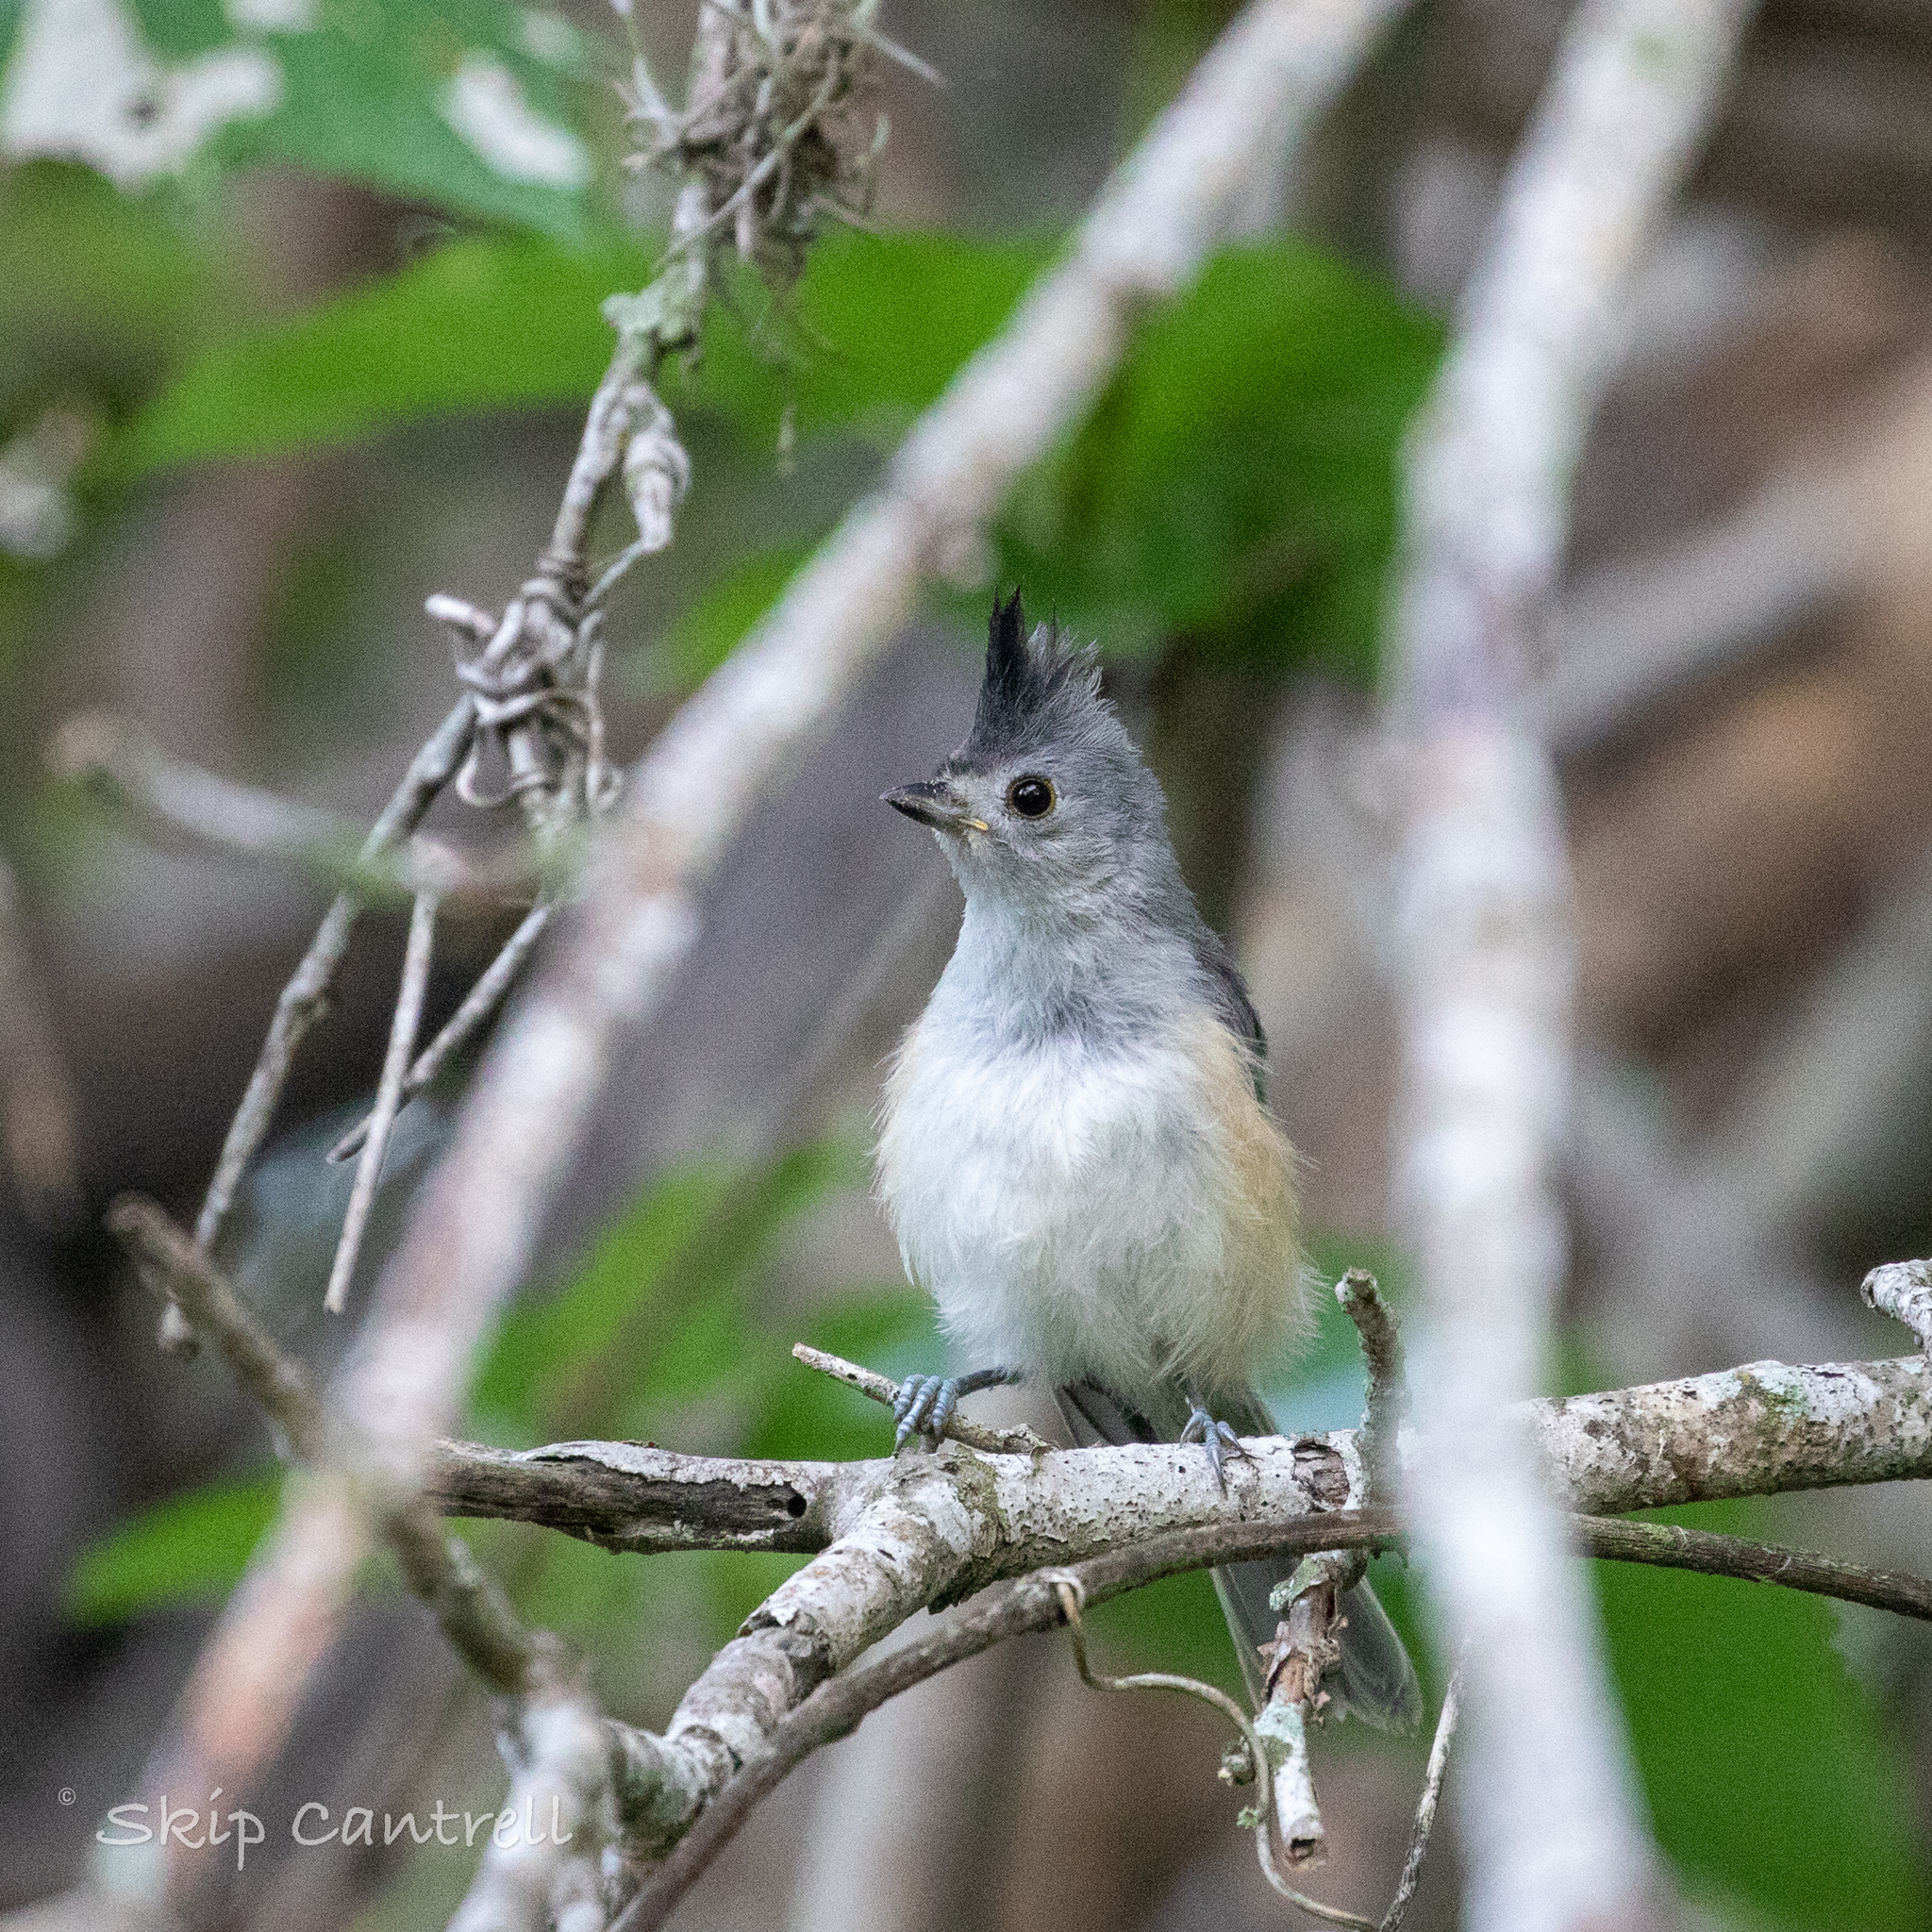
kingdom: Animalia
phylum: Chordata
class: Aves
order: Passeriformes
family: Paridae
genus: Baeolophus
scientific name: Baeolophus atricristatus
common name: Black-crested titmouse
